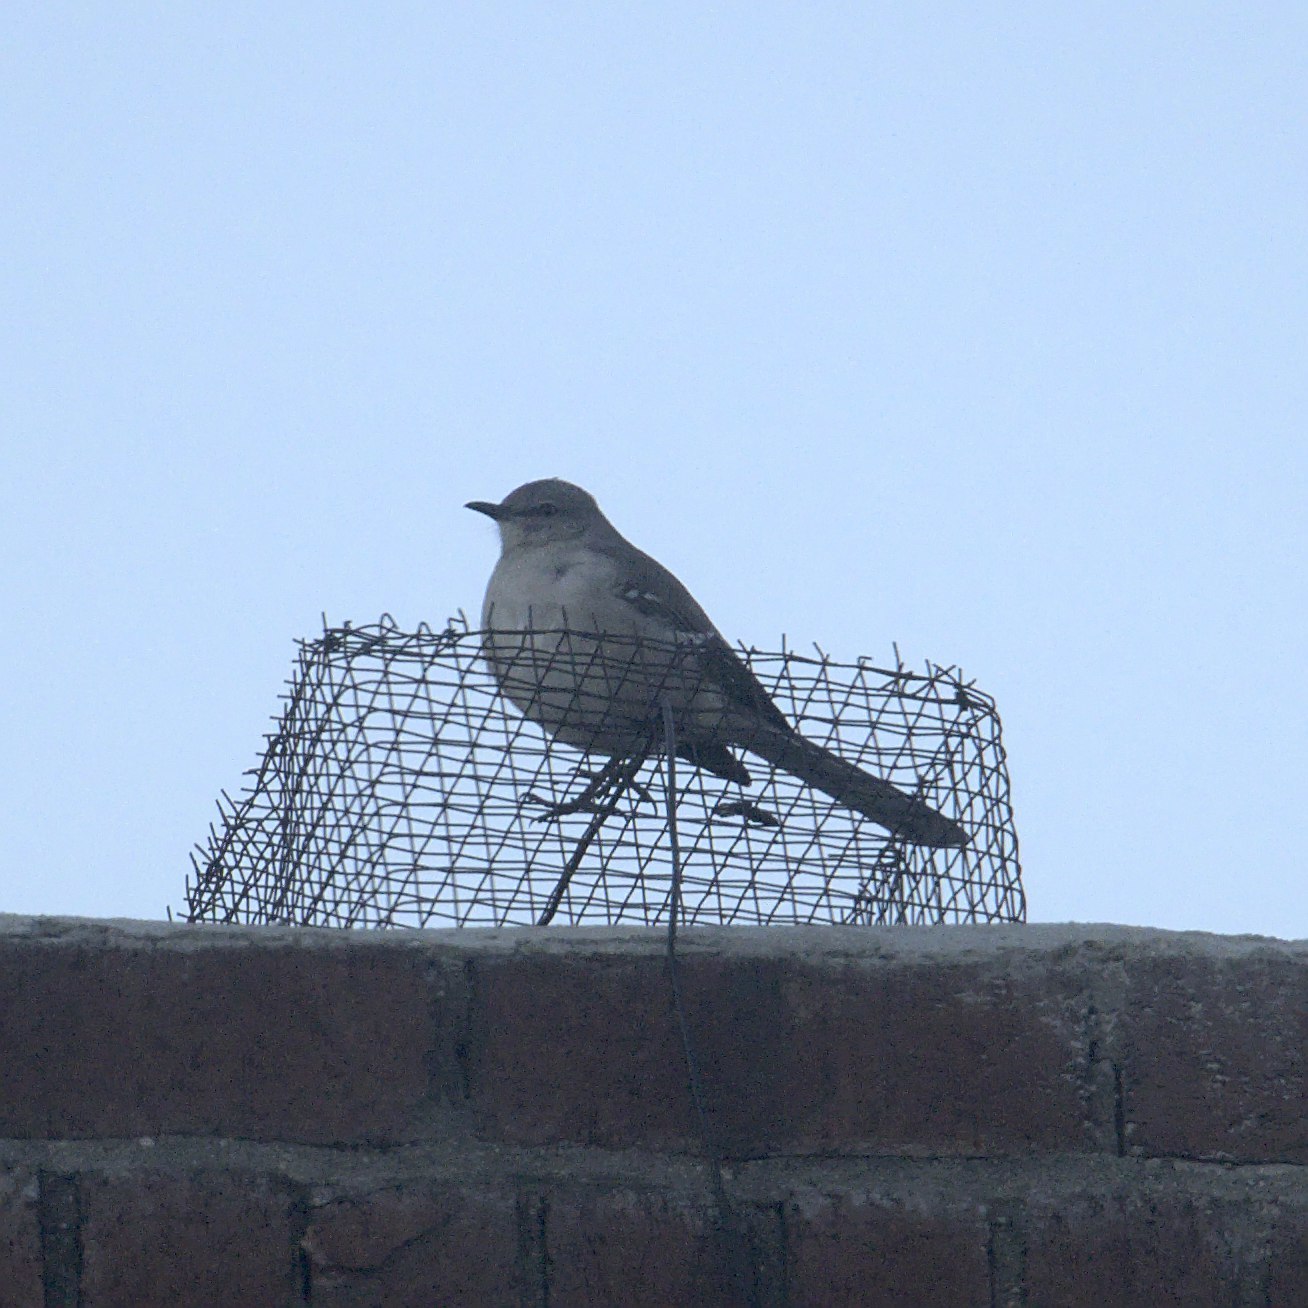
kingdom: Animalia
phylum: Chordata
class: Aves
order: Passeriformes
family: Mimidae
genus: Mimus
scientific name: Mimus polyglottos
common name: Northern mockingbird
